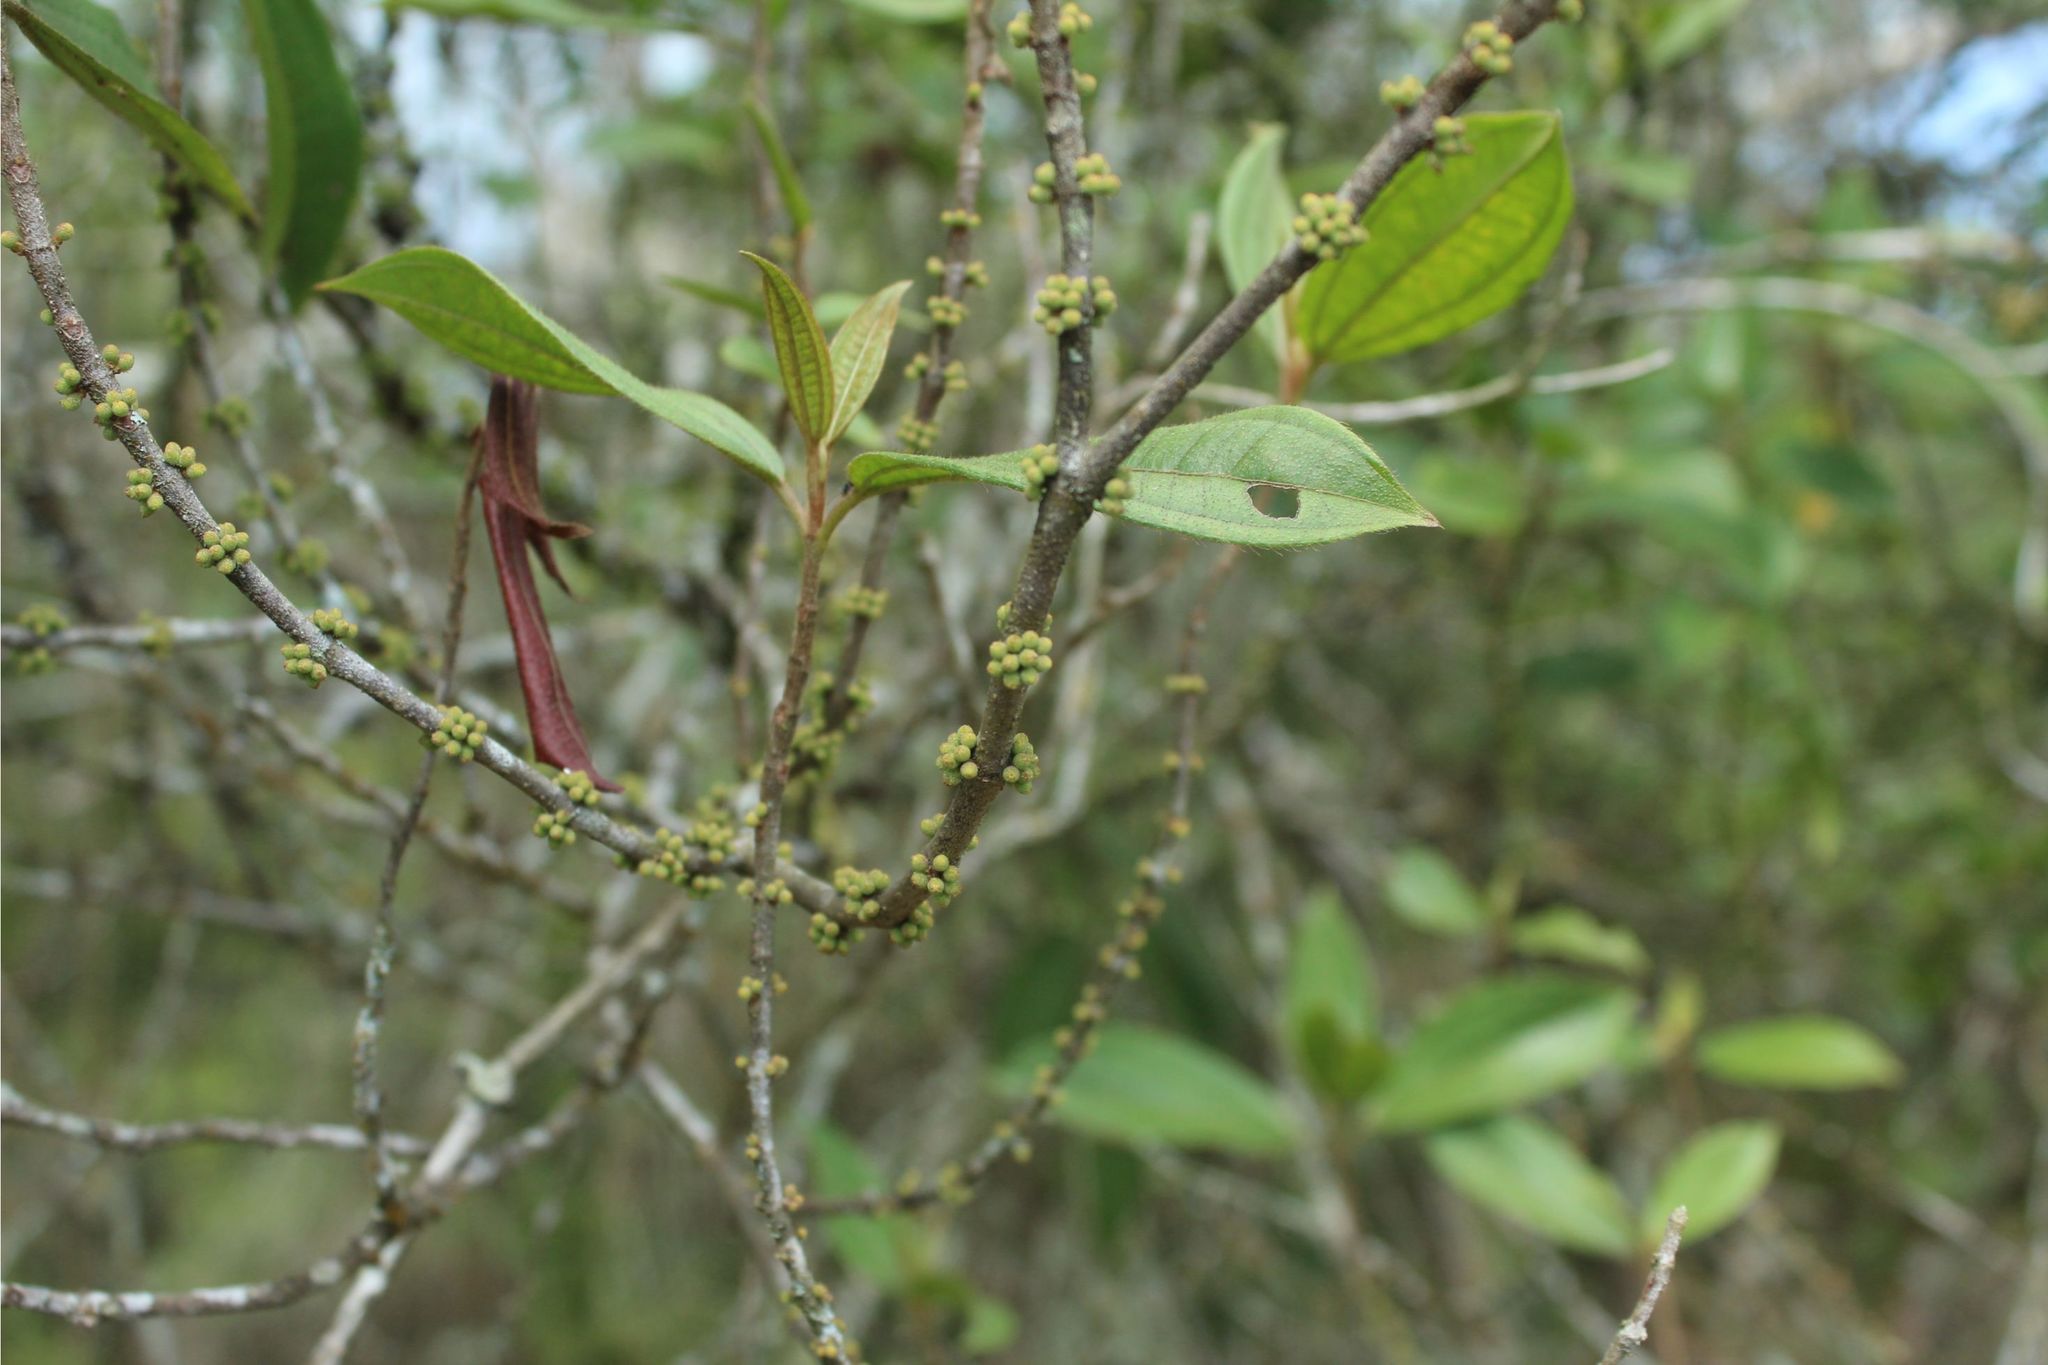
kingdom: Plantae
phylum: Tracheophyta
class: Magnoliopsida
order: Myrtales
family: Melastomataceae
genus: Henriettea
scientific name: Henriettea goudotiana
